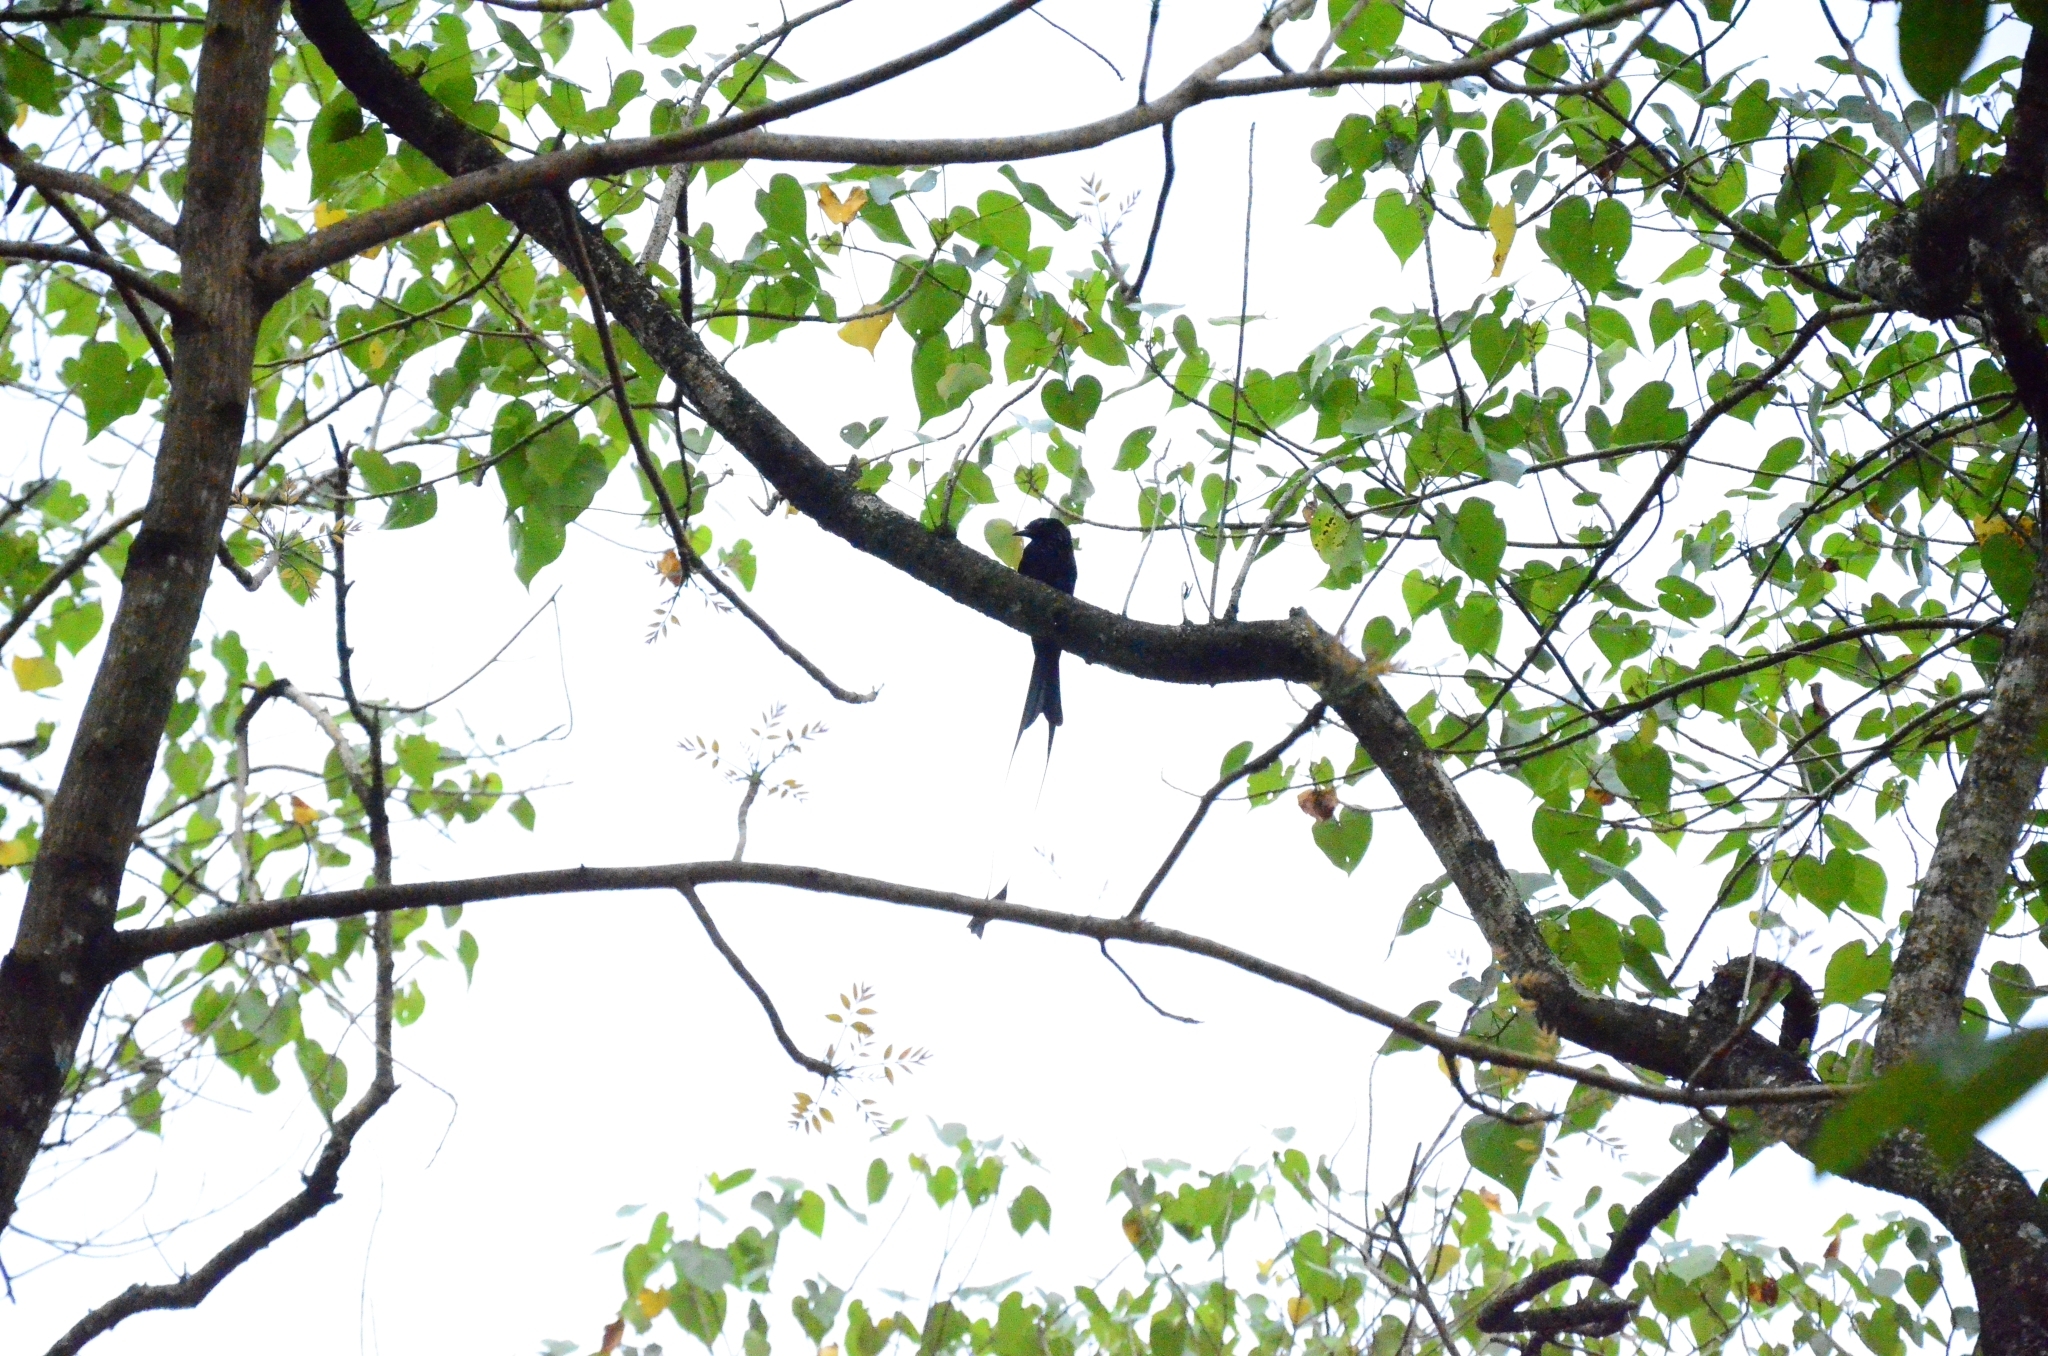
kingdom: Animalia
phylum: Chordata
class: Aves
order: Passeriformes
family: Dicruridae
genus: Dicrurus
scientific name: Dicrurus paradiseus
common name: Greater racket-tailed drongo
